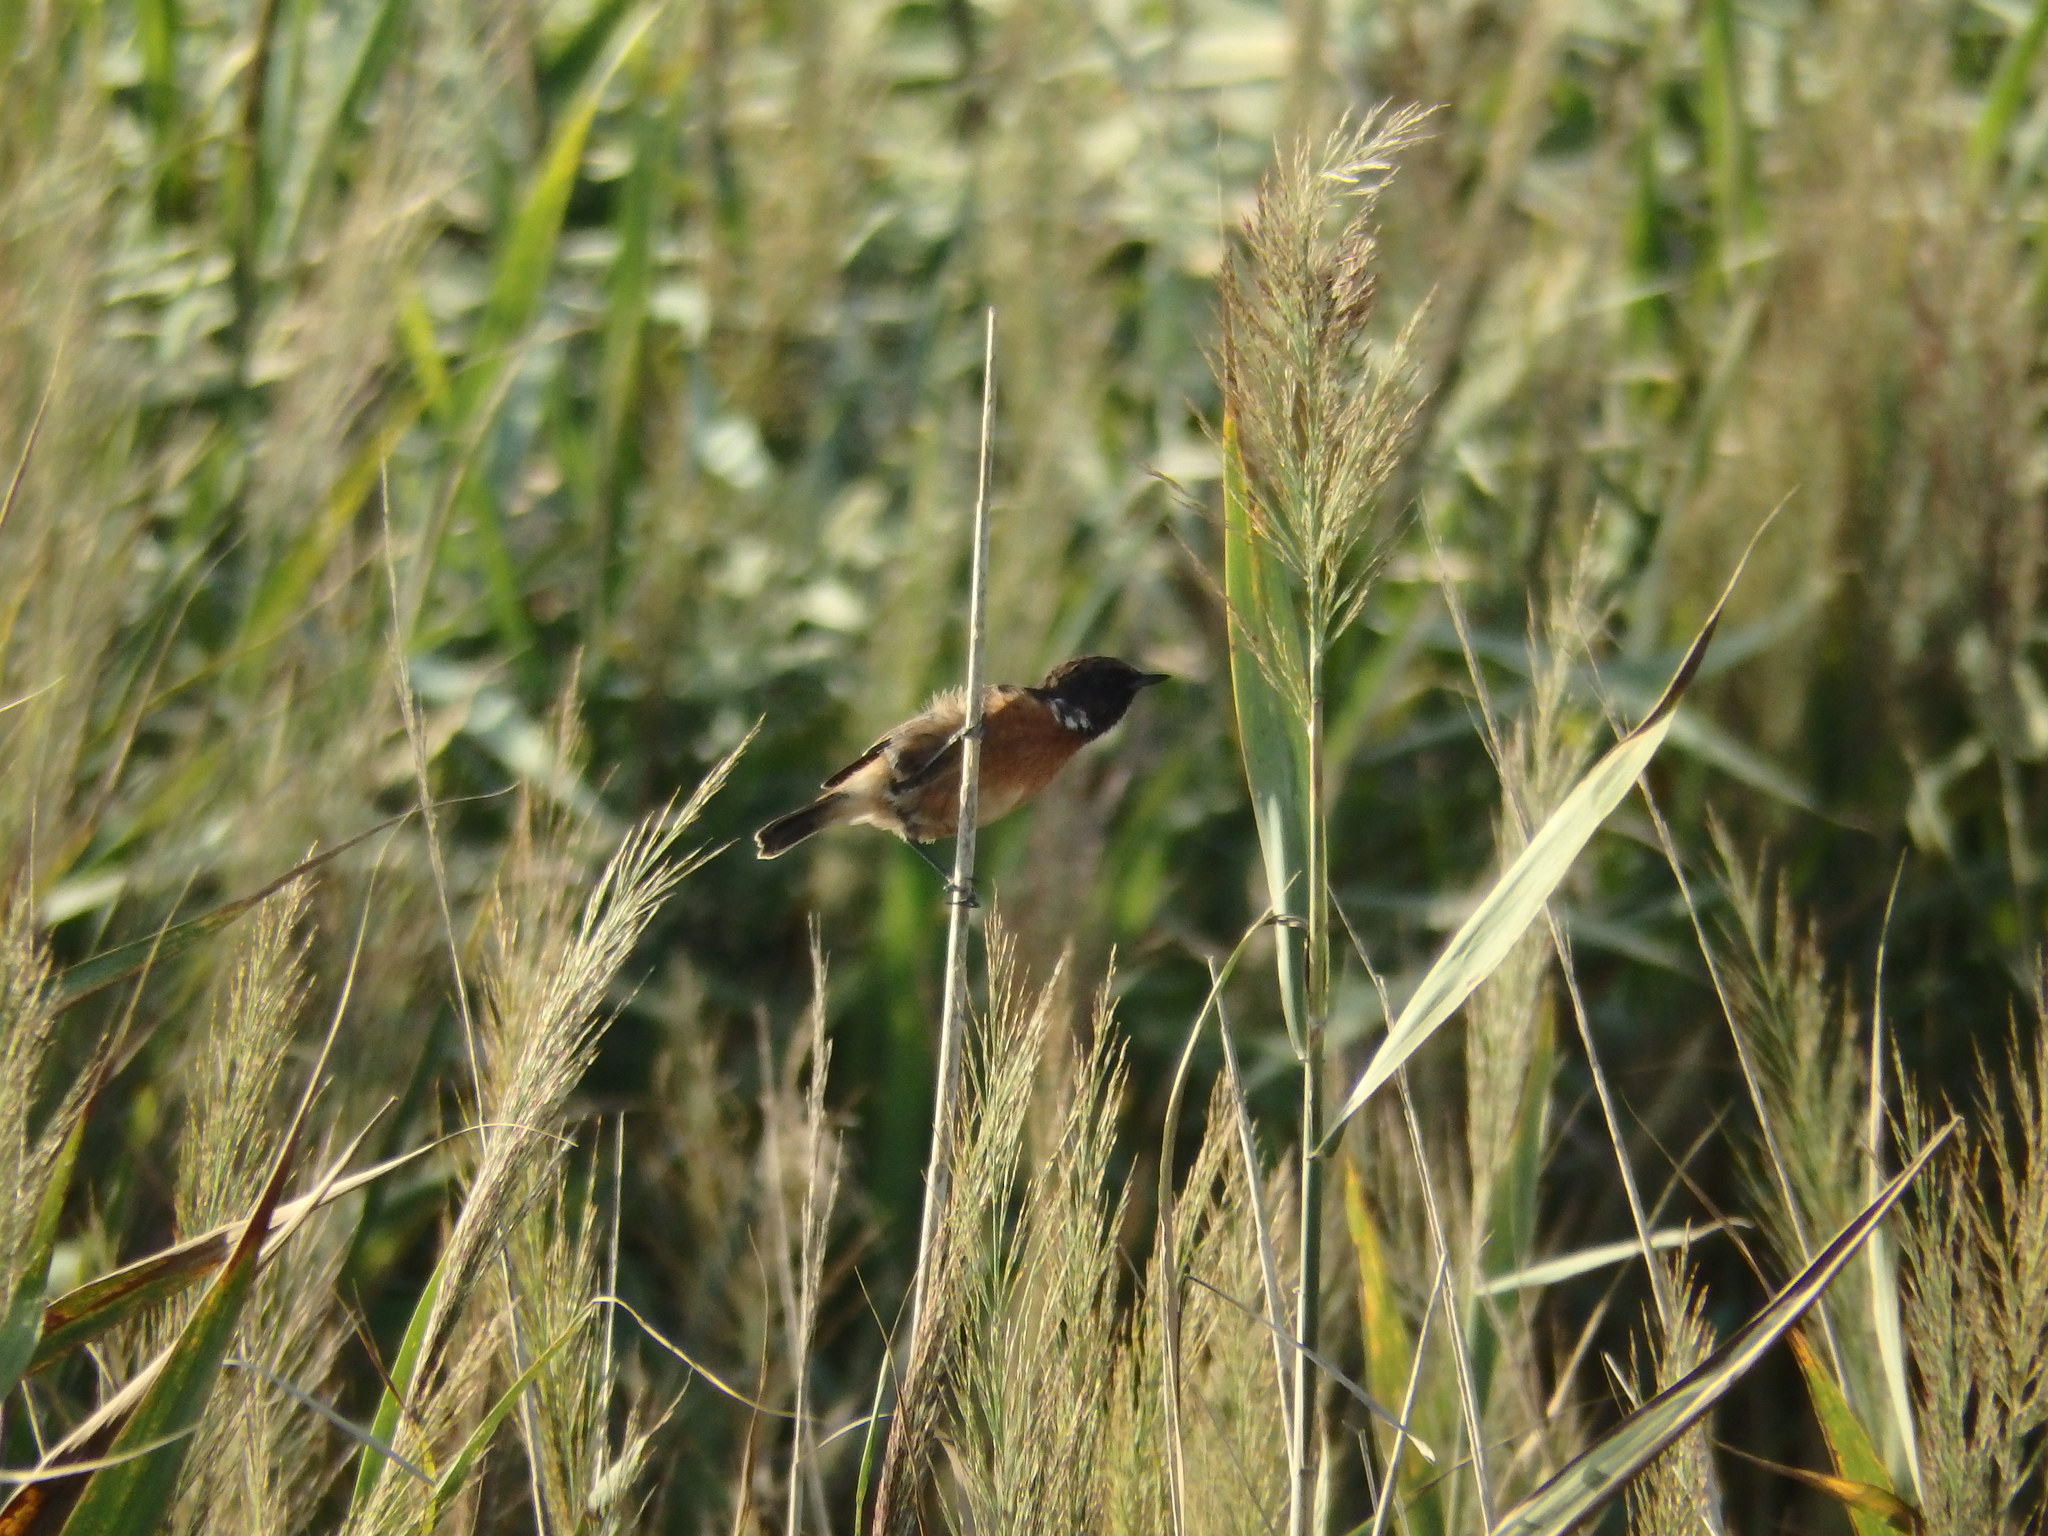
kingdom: Animalia
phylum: Chordata
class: Aves
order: Passeriformes
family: Muscicapidae
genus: Saxicola
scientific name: Saxicola rubicola
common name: European stonechat
